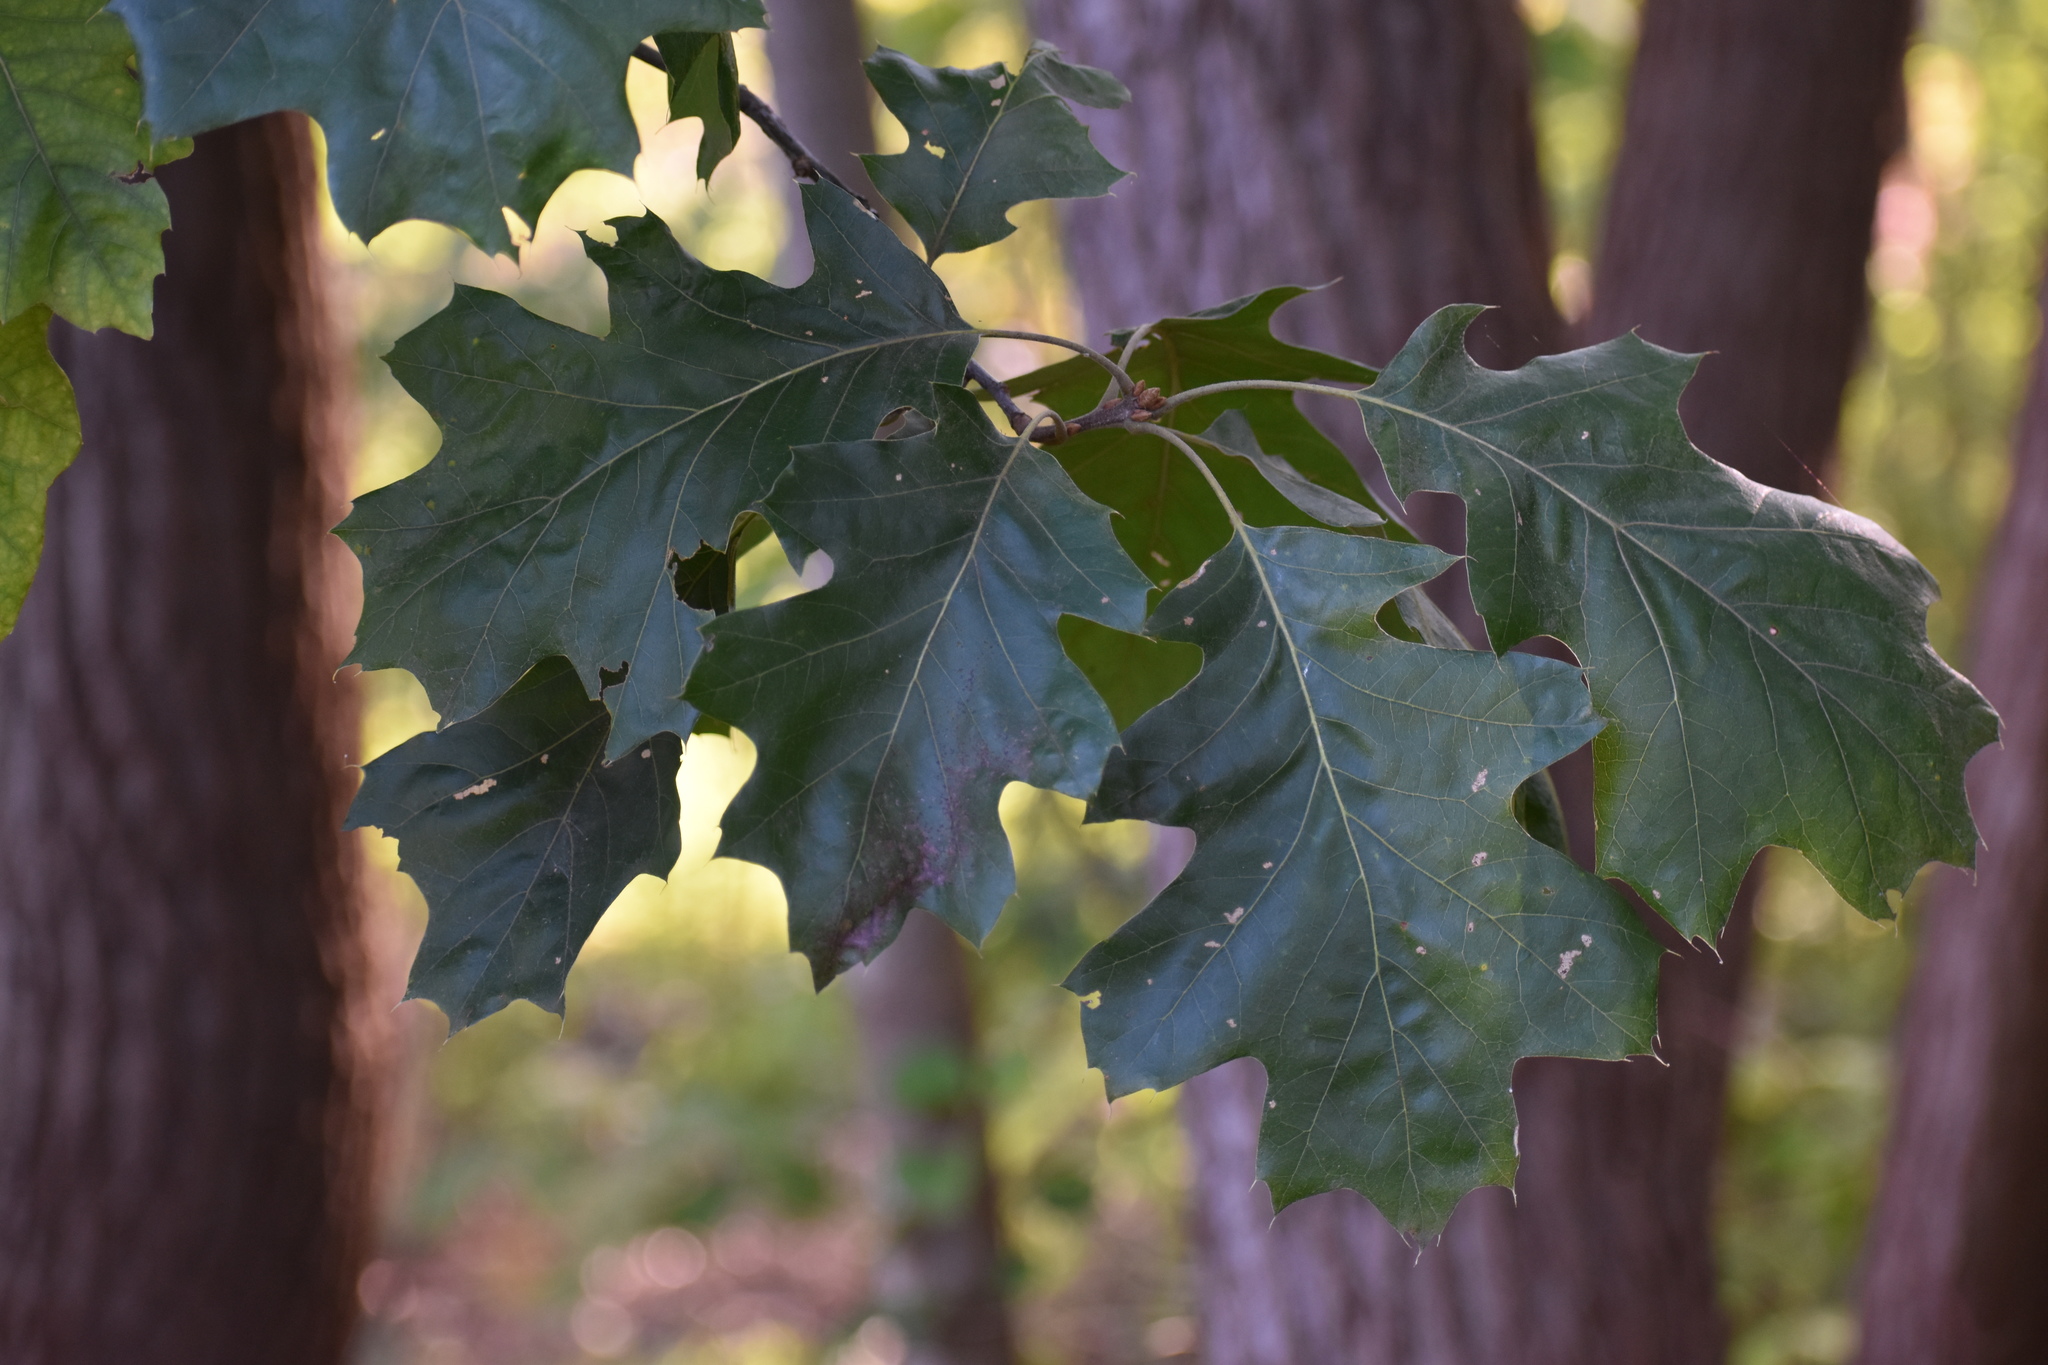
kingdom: Plantae
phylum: Tracheophyta
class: Magnoliopsida
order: Fagales
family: Fagaceae
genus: Quercus
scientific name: Quercus velutina
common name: Black oak
